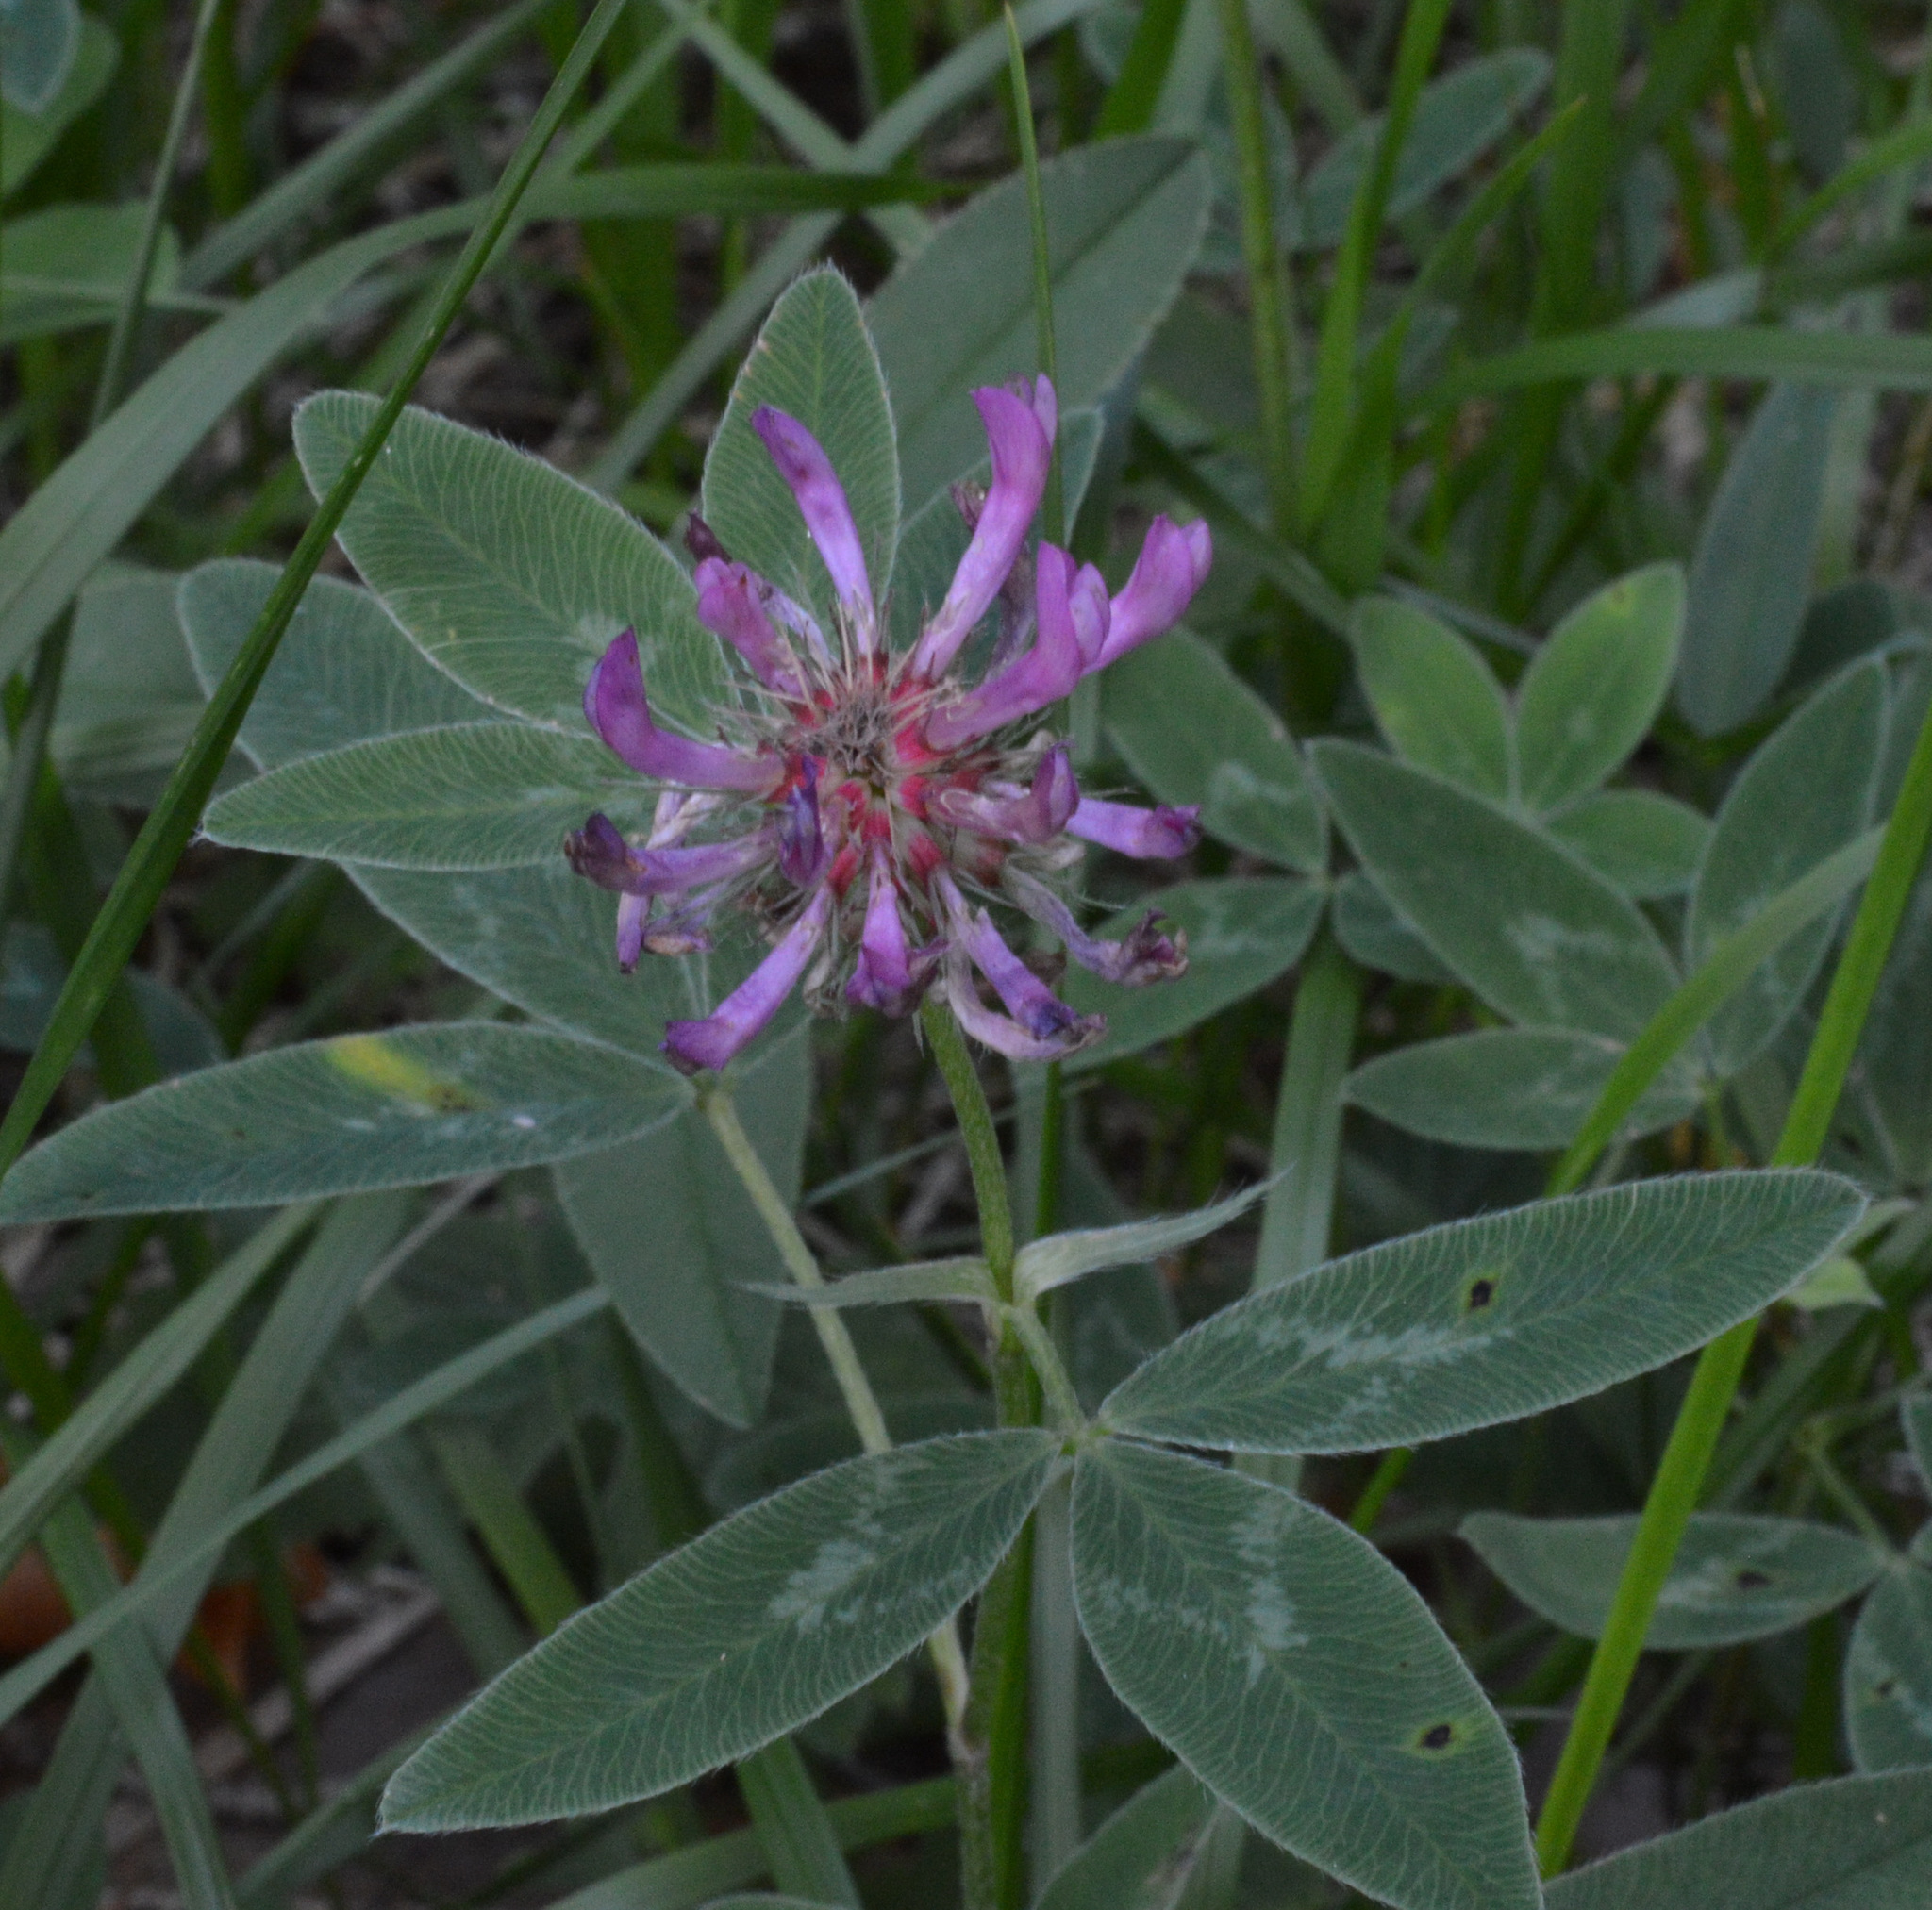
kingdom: Plantae
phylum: Tracheophyta
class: Magnoliopsida
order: Fabales
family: Fabaceae
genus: Trifolium
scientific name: Trifolium medium
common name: Zigzag clover
